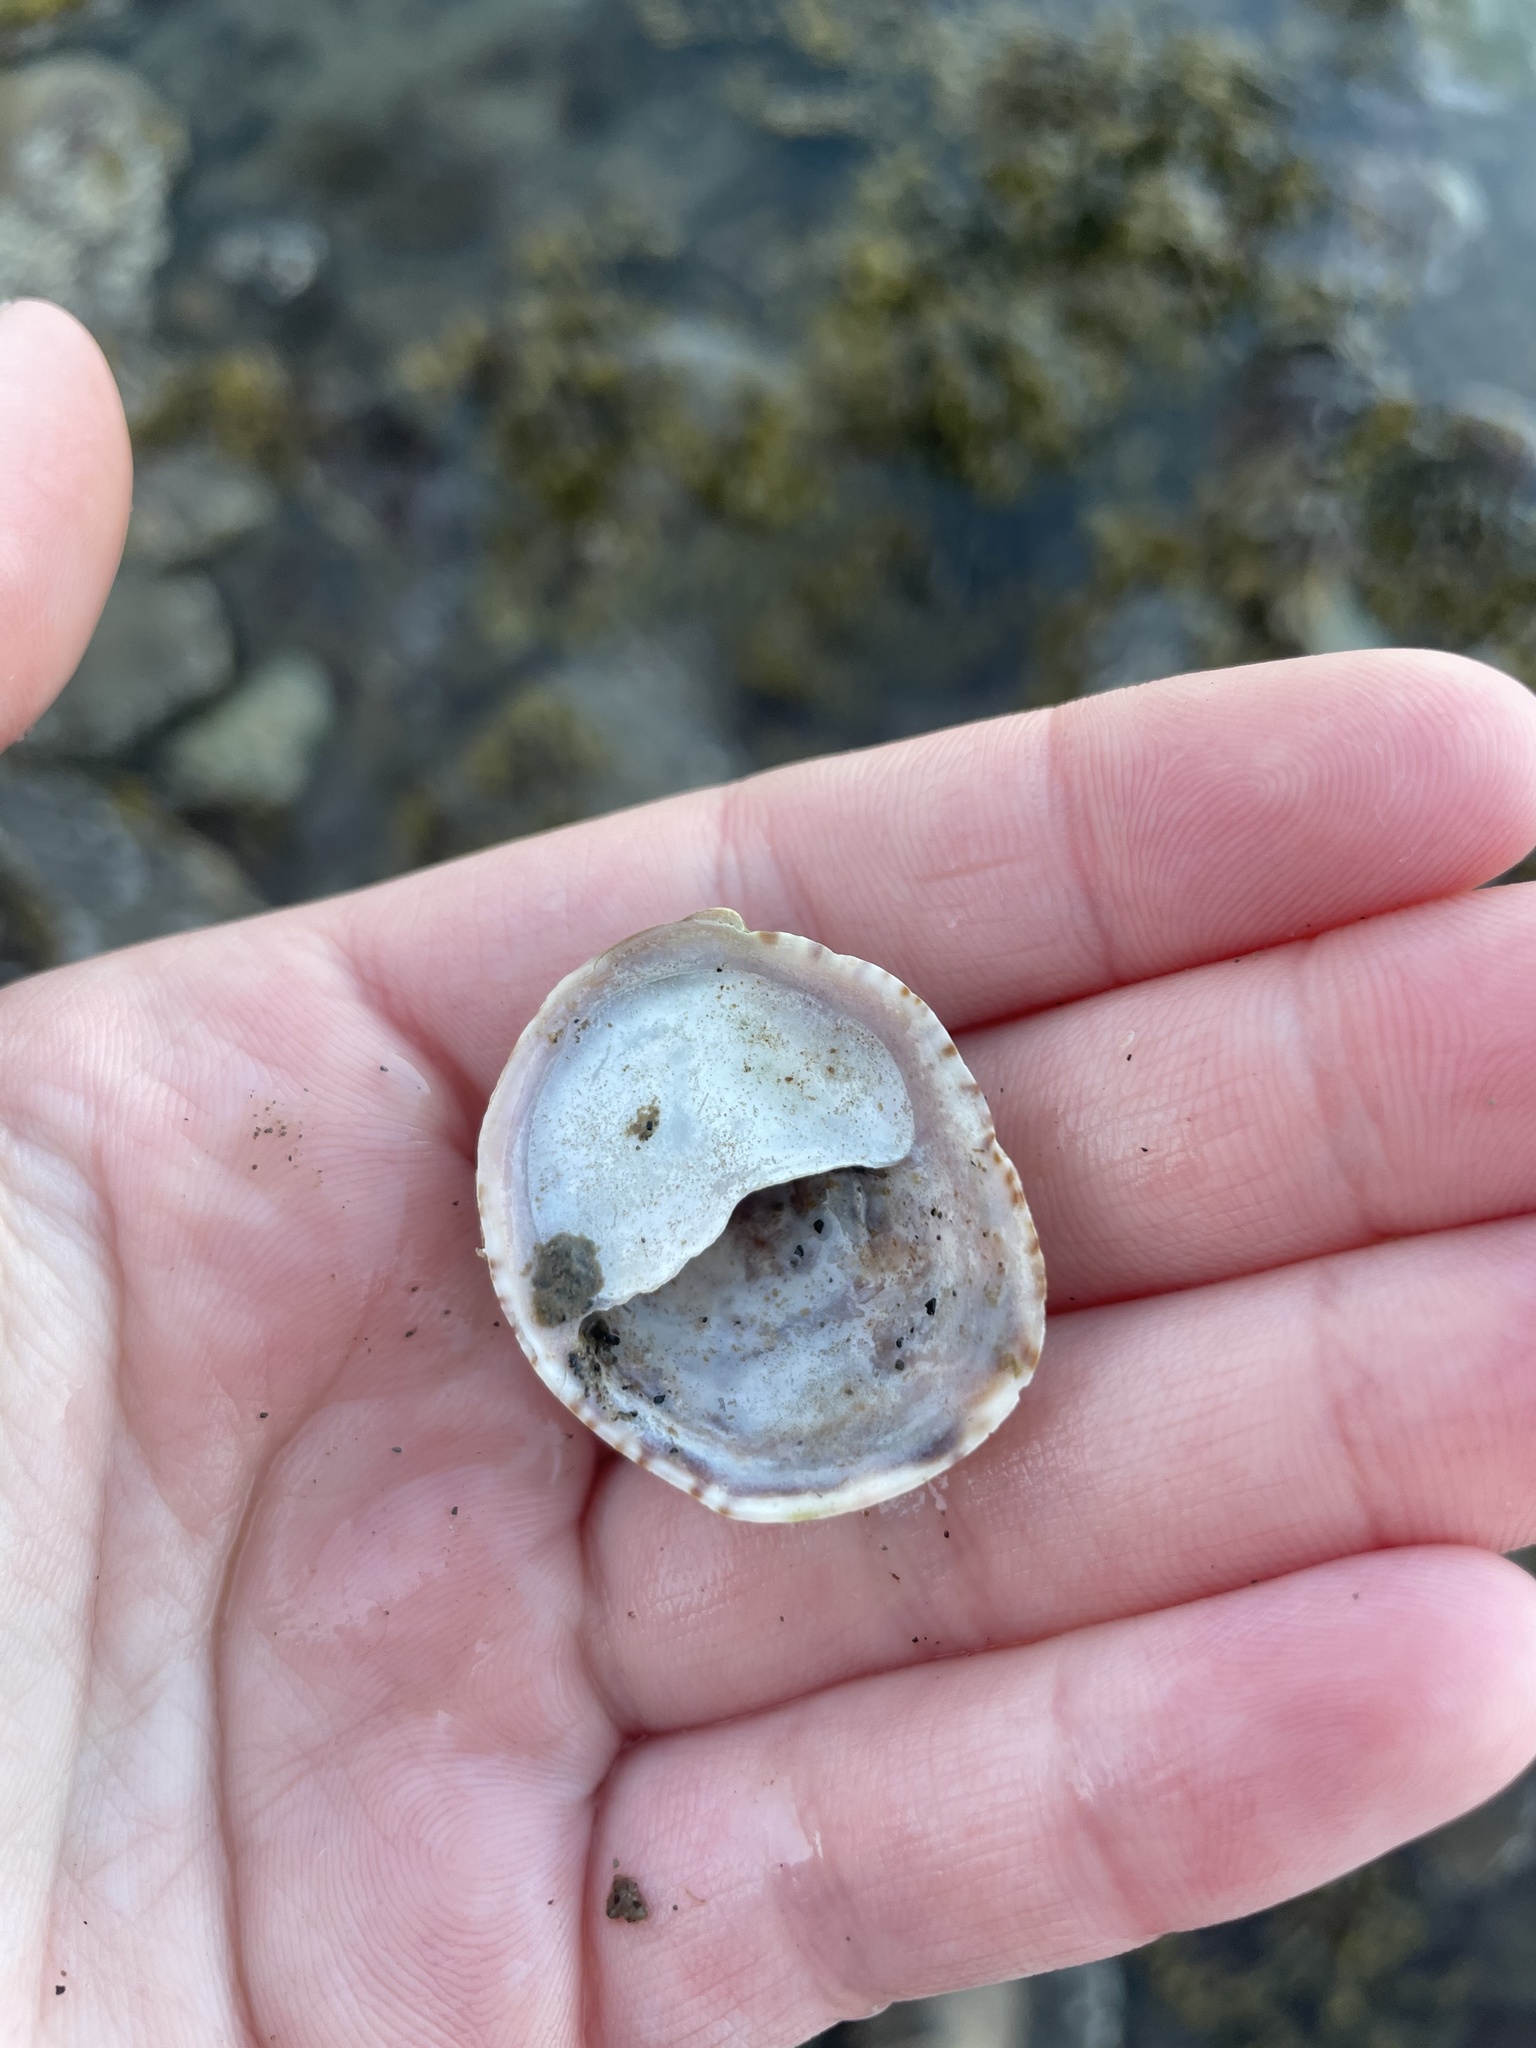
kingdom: Animalia
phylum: Mollusca
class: Gastropoda
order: Littorinimorpha
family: Calyptraeidae
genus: Crepidula
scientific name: Crepidula fornicata
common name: Slipper limpet
